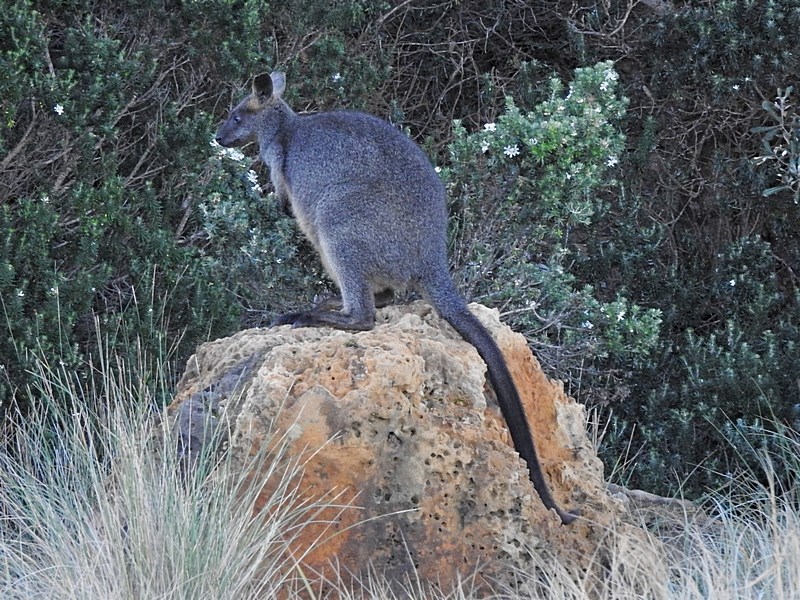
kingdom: Animalia
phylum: Chordata
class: Mammalia
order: Diprotodontia
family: Macropodidae
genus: Wallabia
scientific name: Wallabia bicolor
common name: Swamp wallaby
